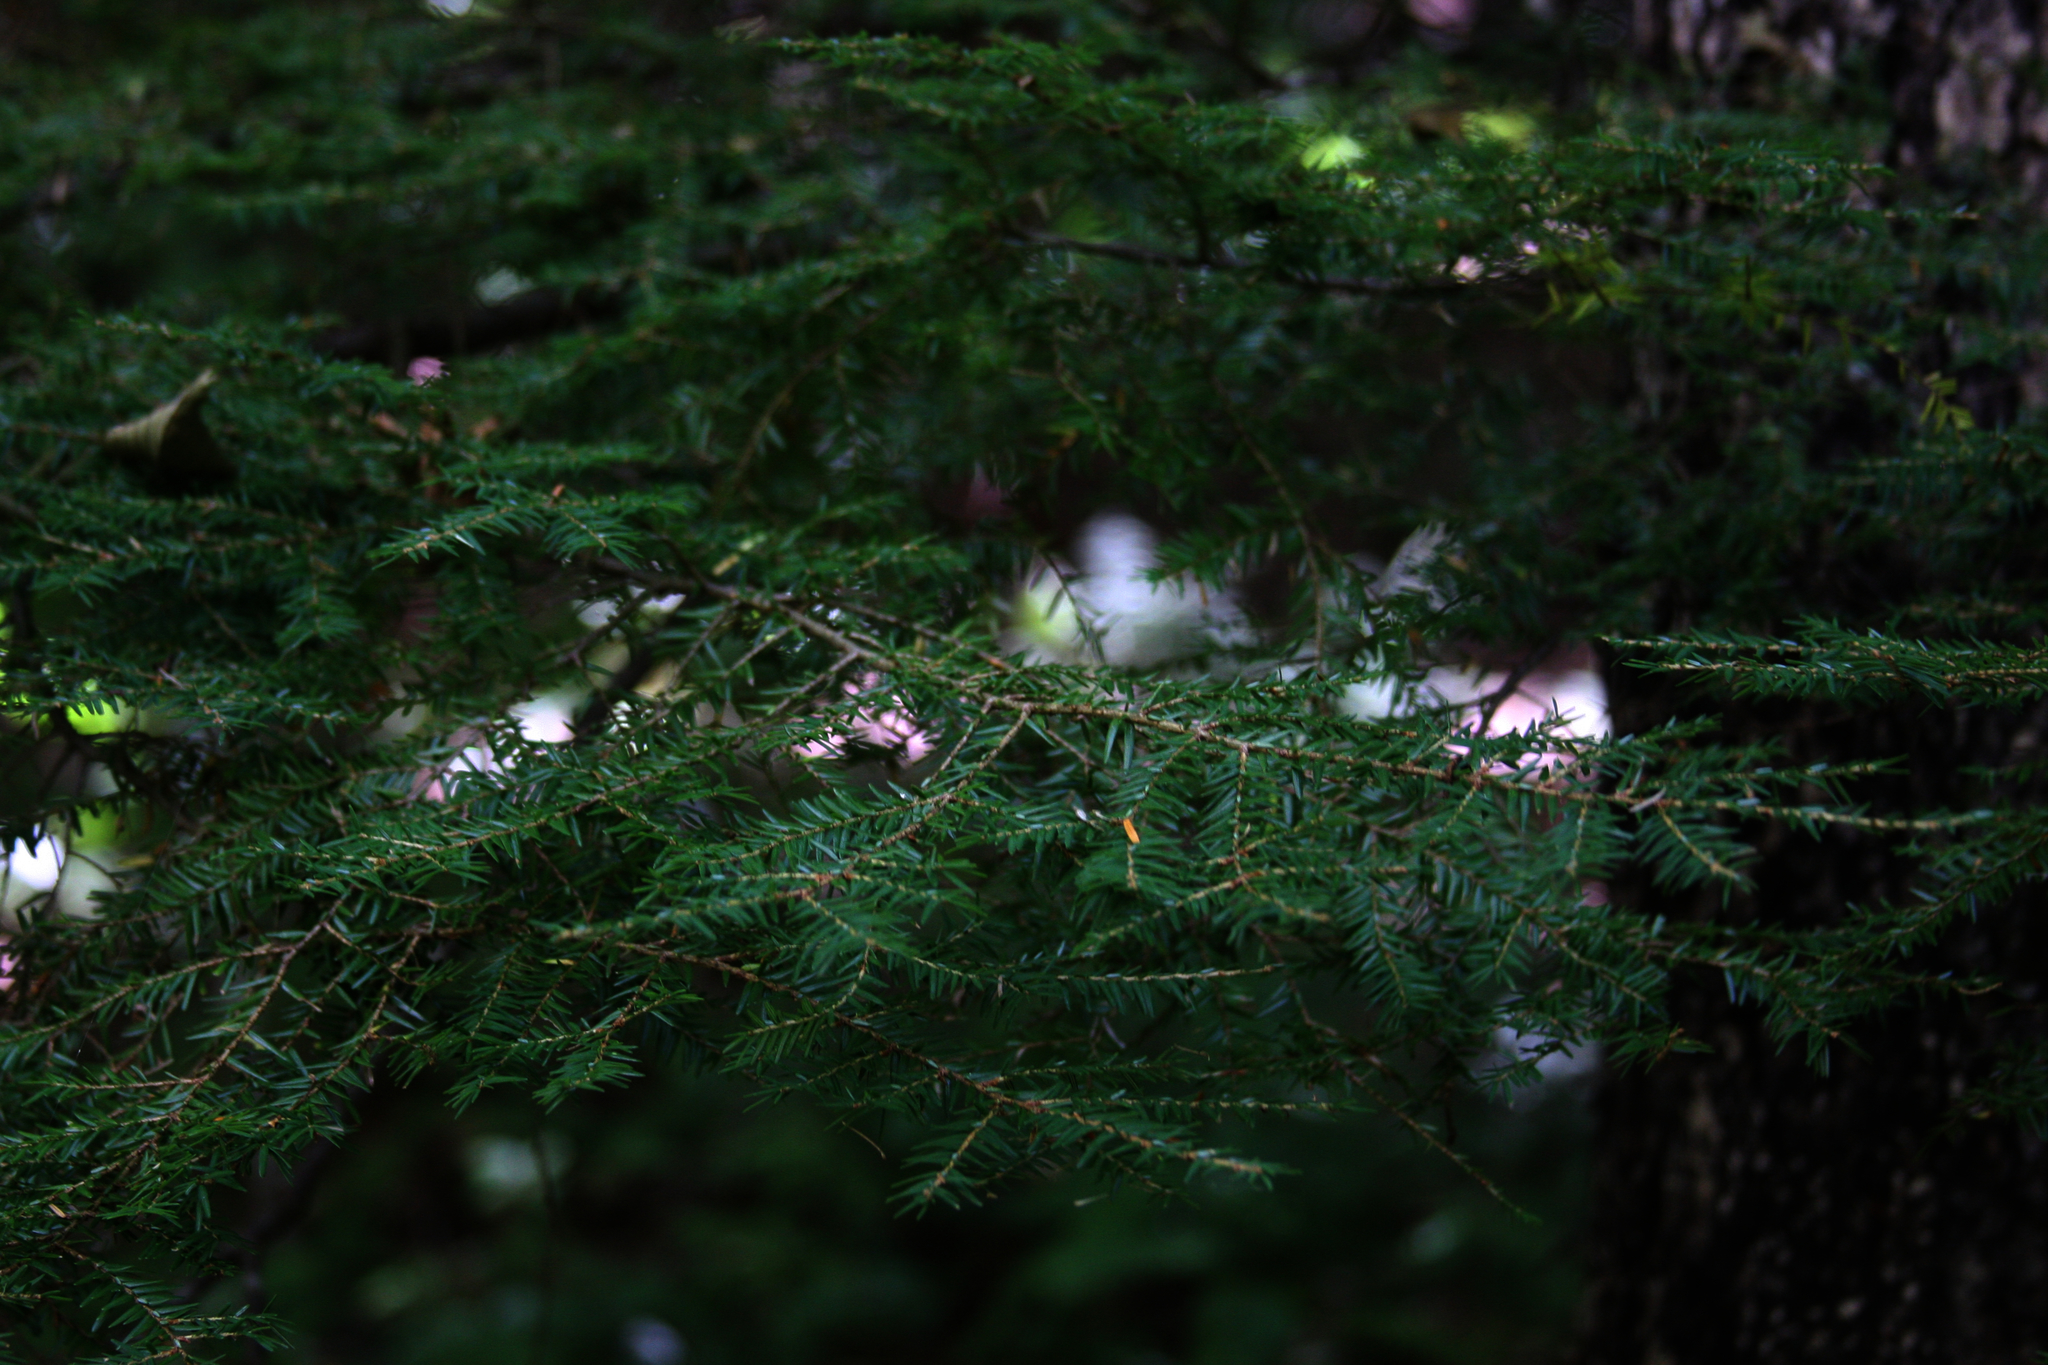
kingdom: Plantae
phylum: Tracheophyta
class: Pinopsida
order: Pinales
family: Pinaceae
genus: Tsuga
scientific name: Tsuga canadensis
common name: Eastern hemlock
